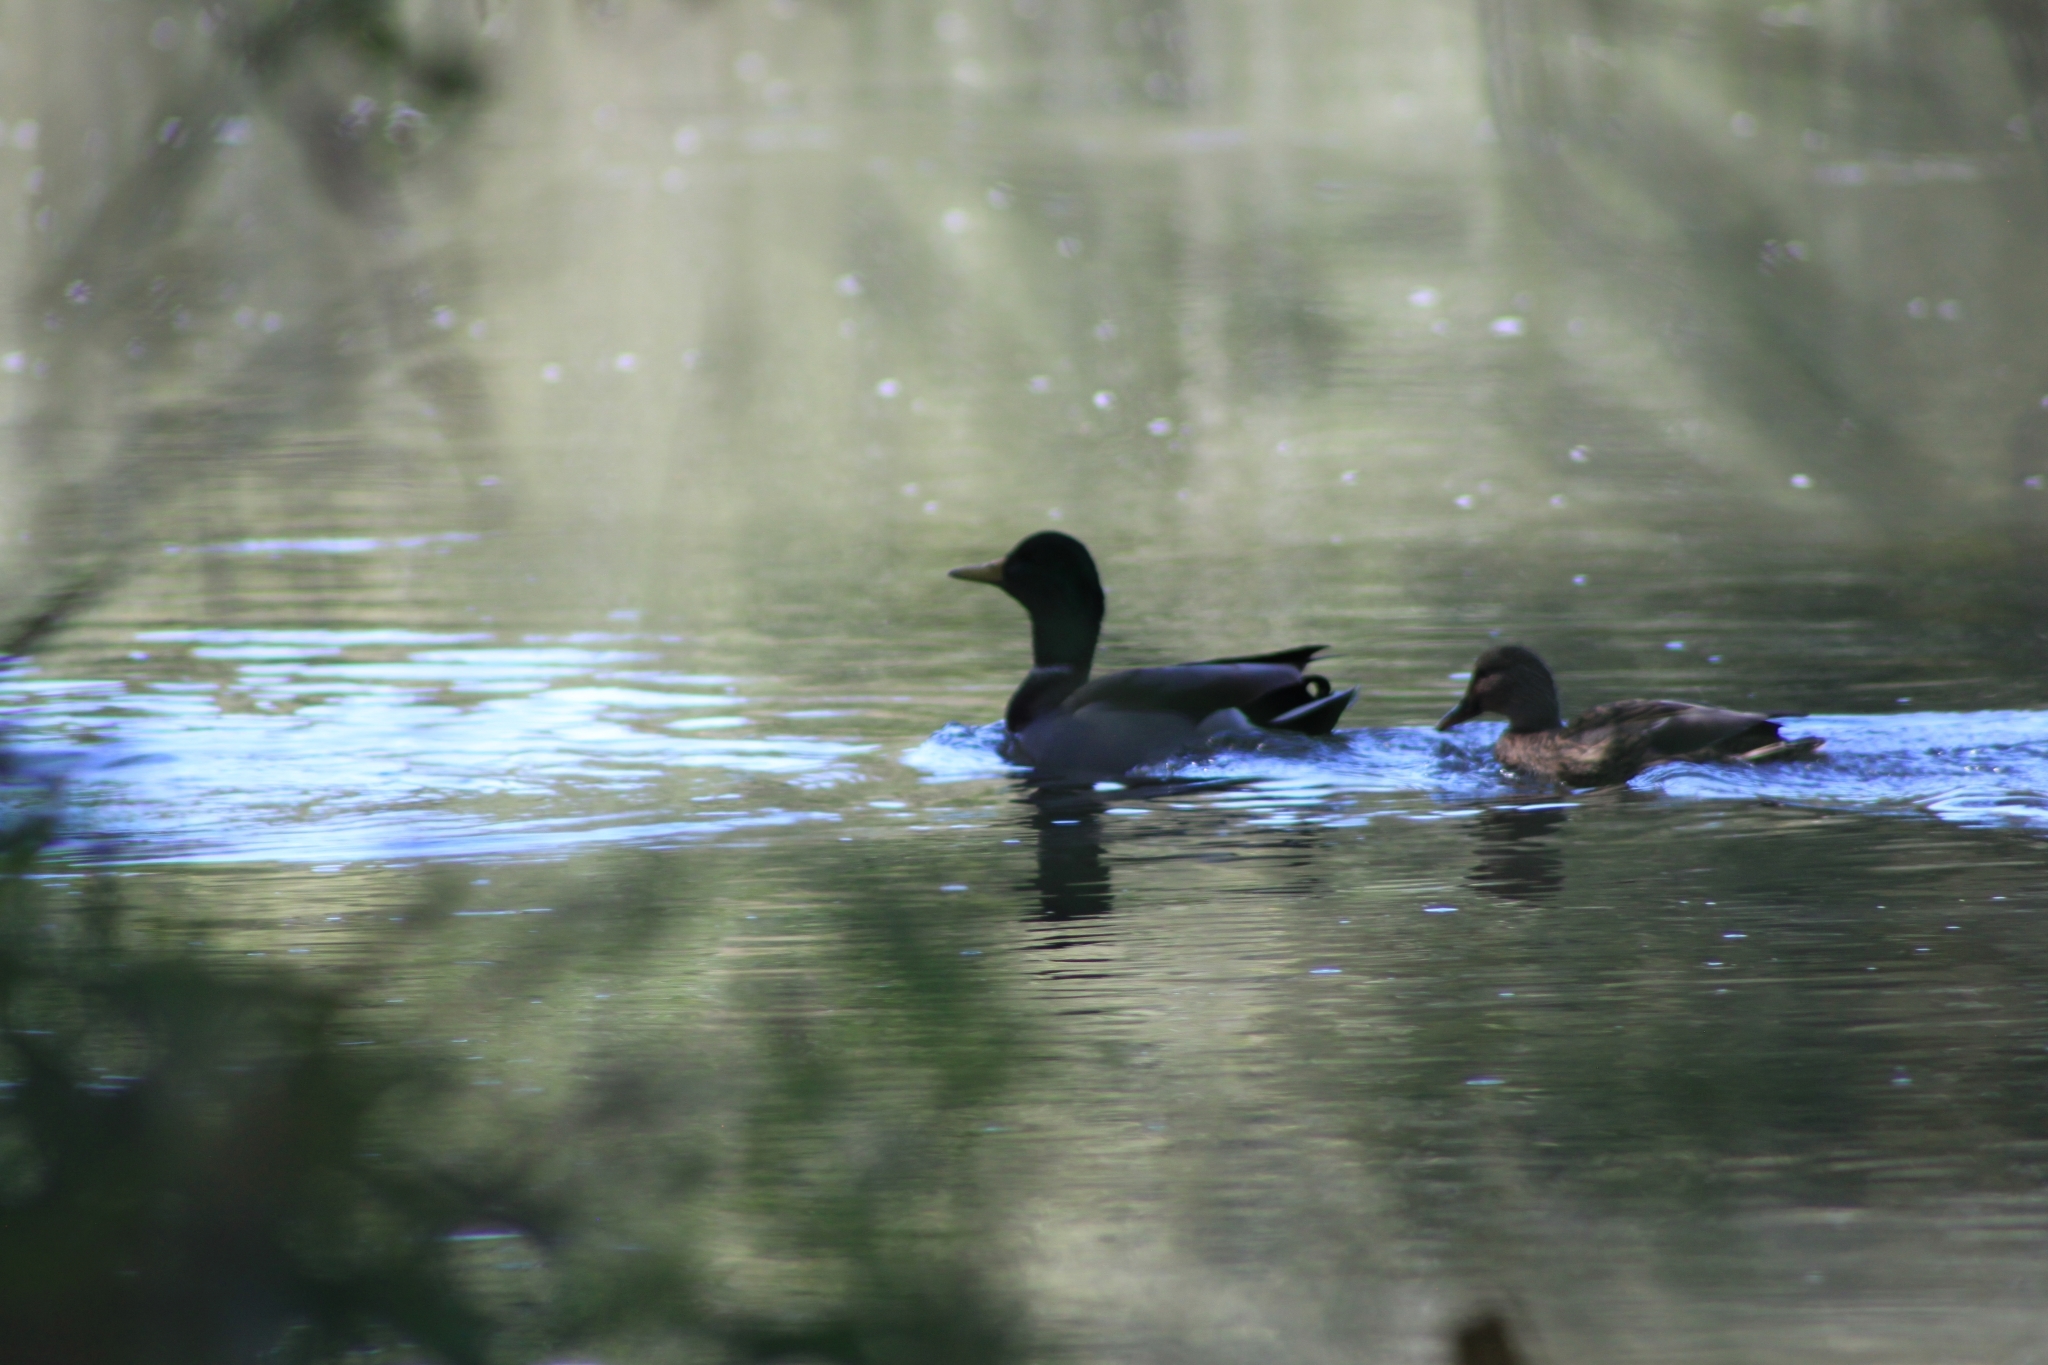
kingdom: Animalia
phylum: Chordata
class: Aves
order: Anseriformes
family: Anatidae
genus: Anas
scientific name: Anas platyrhynchos
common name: Mallard
